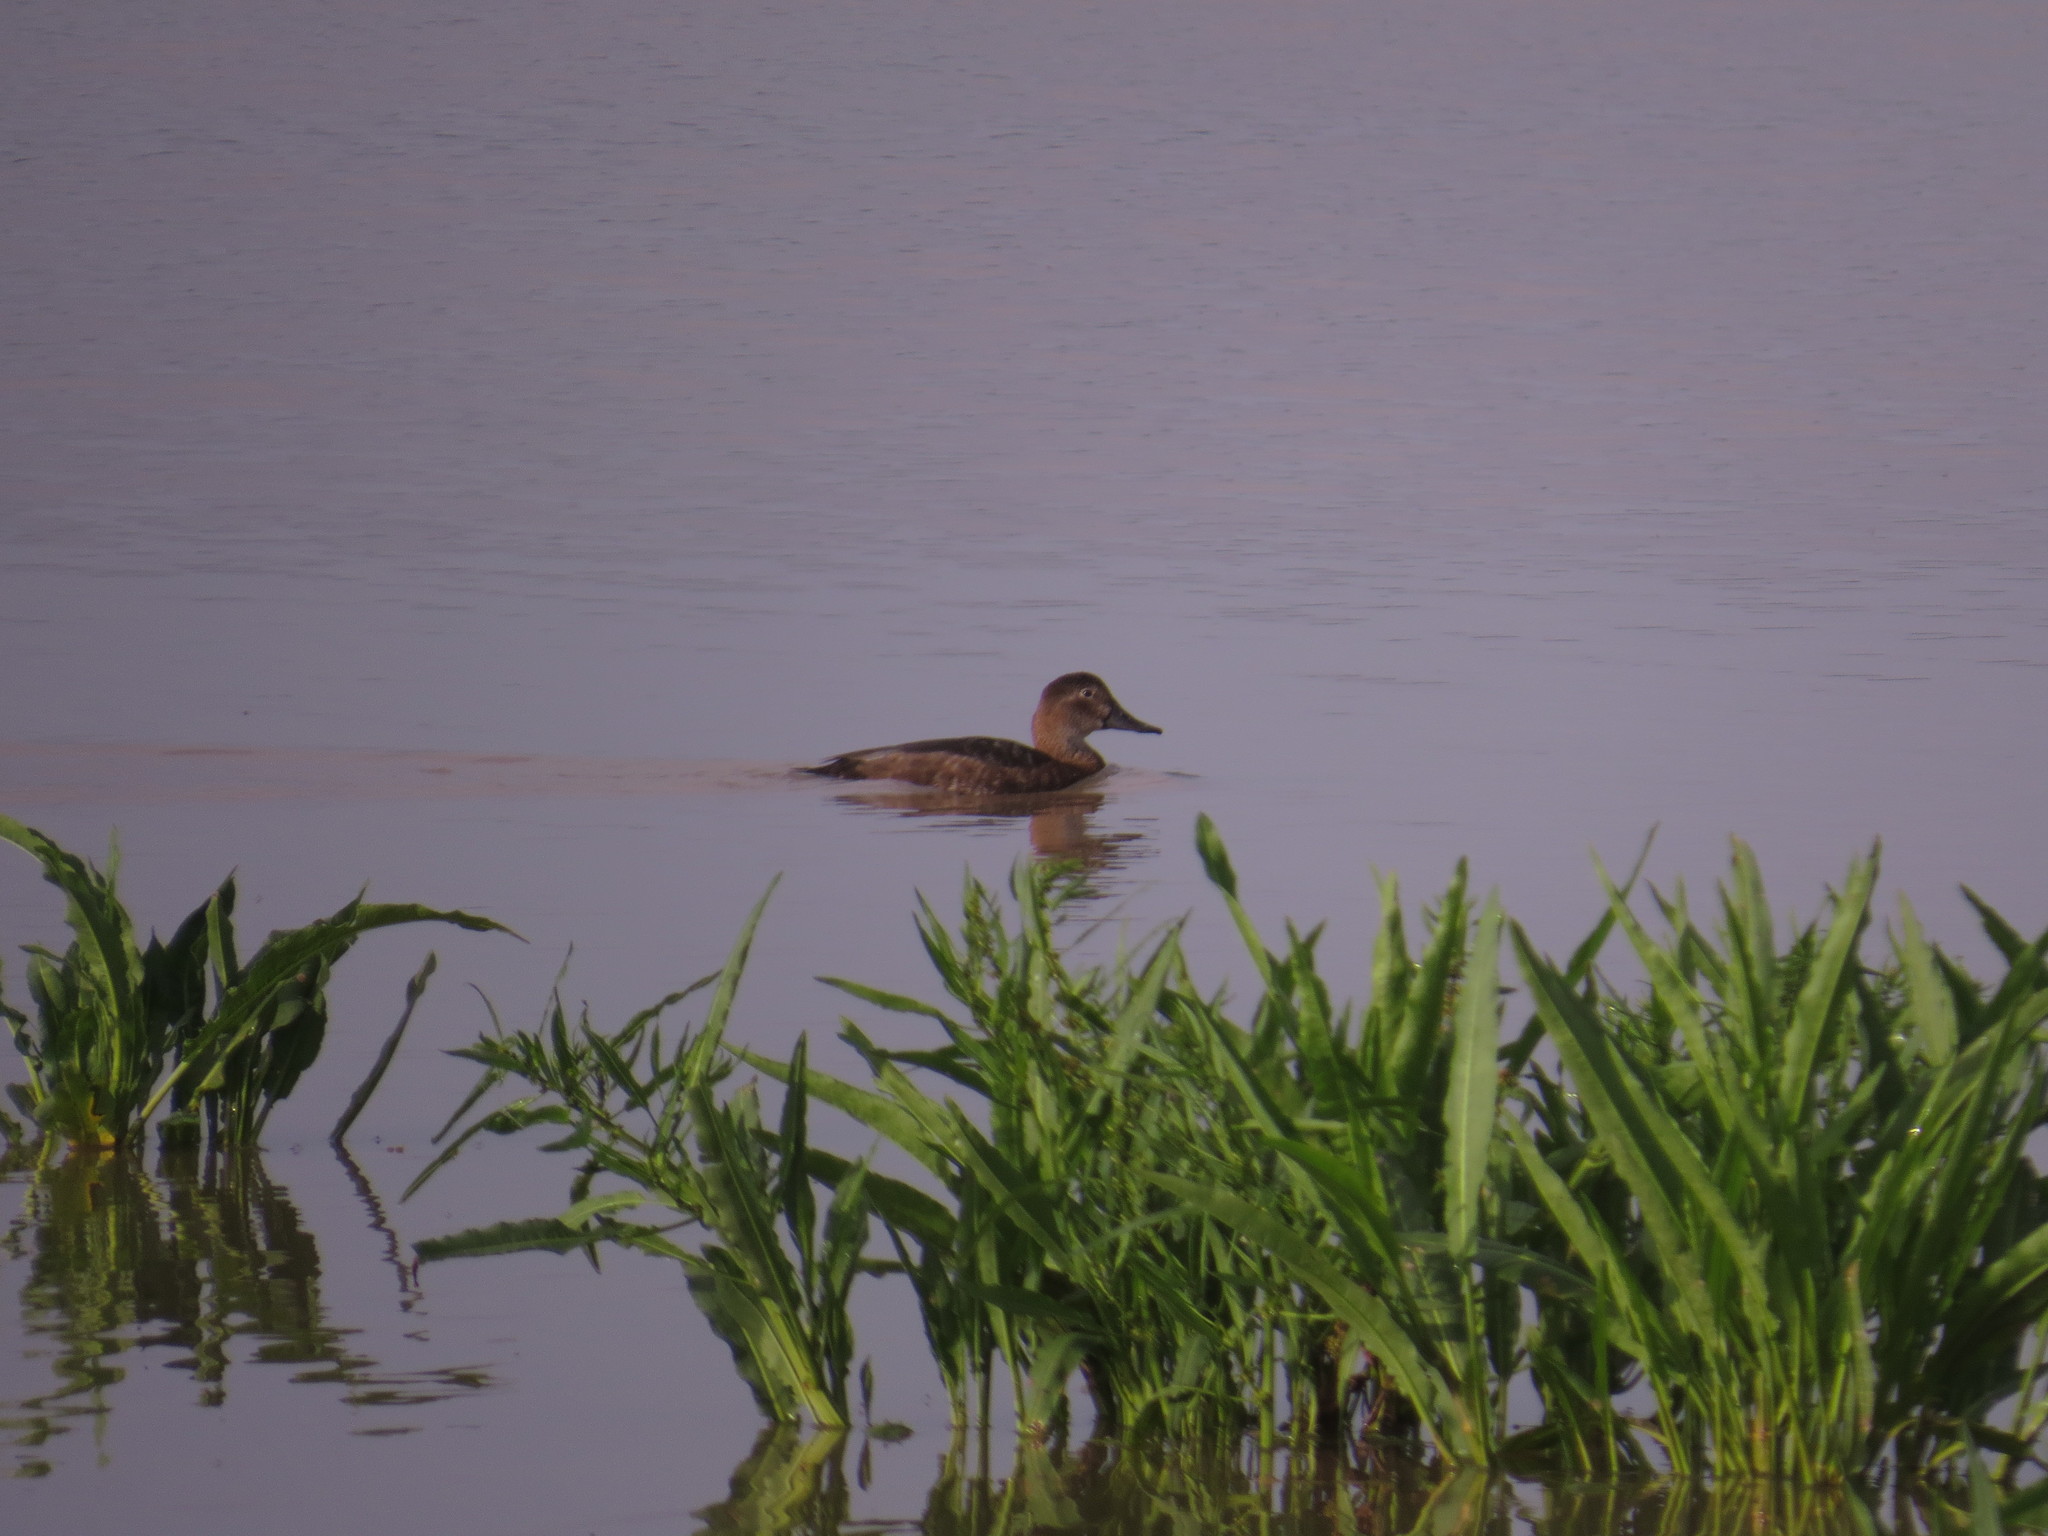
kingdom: Animalia
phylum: Chordata
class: Aves
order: Anseriformes
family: Anatidae
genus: Aythya
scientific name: Aythya ferina
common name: Common pochard
